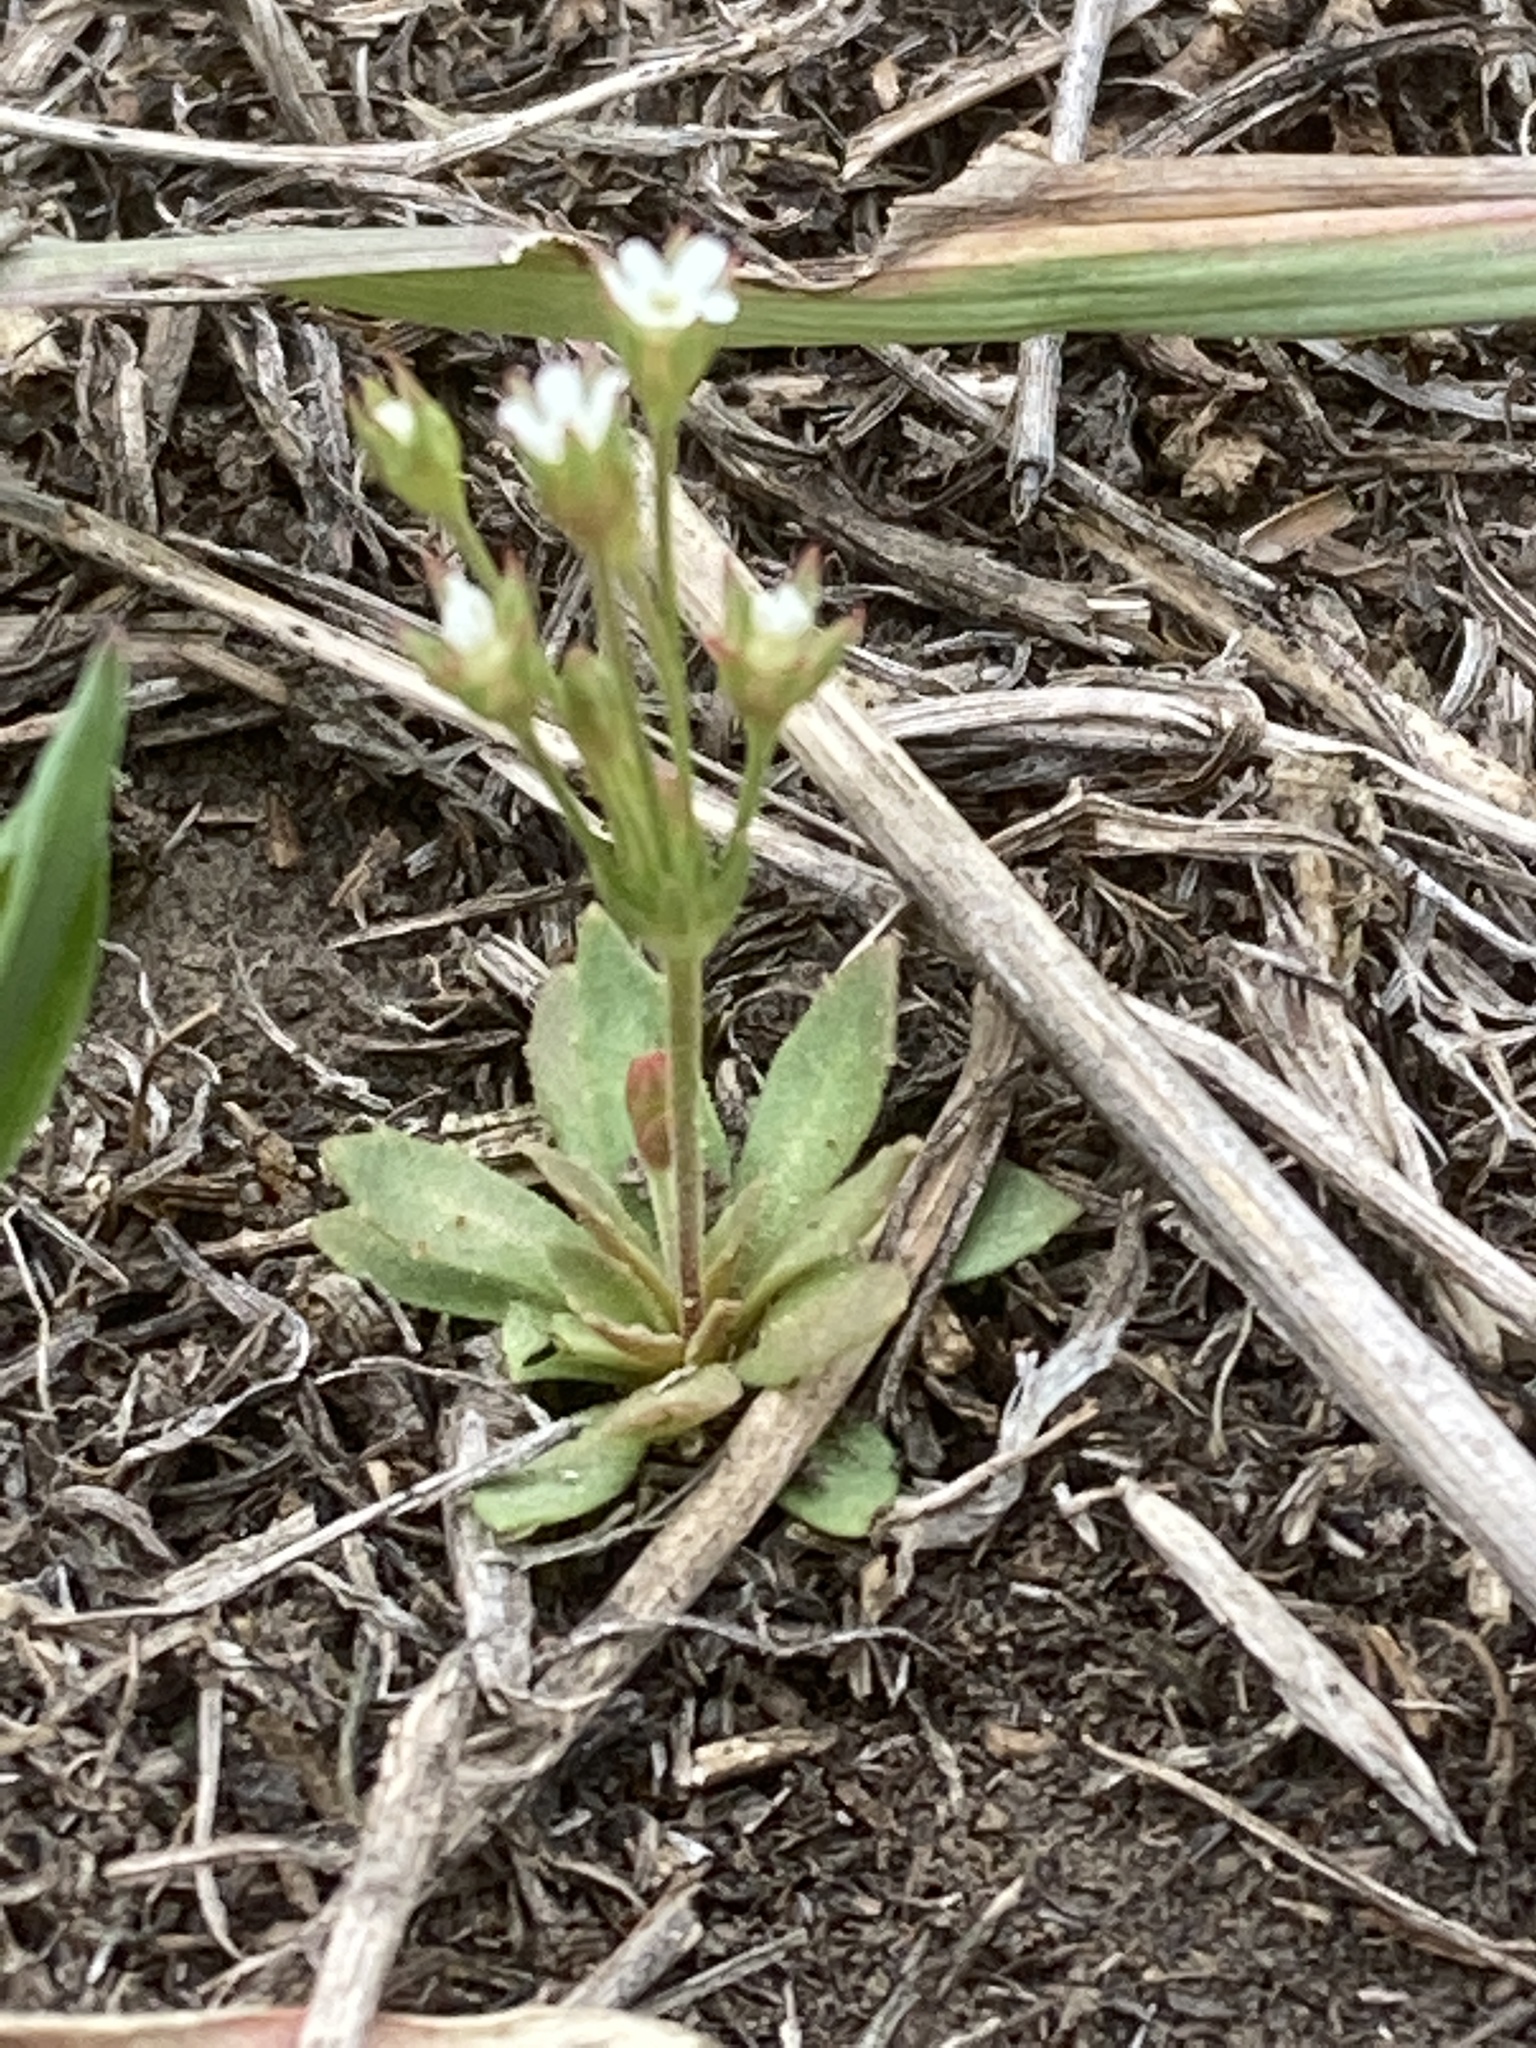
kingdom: Plantae
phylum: Tracheophyta
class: Magnoliopsida
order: Ericales
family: Primulaceae
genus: Androsace
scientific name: Androsace septentrionalis
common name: Hairy northern fairy-candelabra
